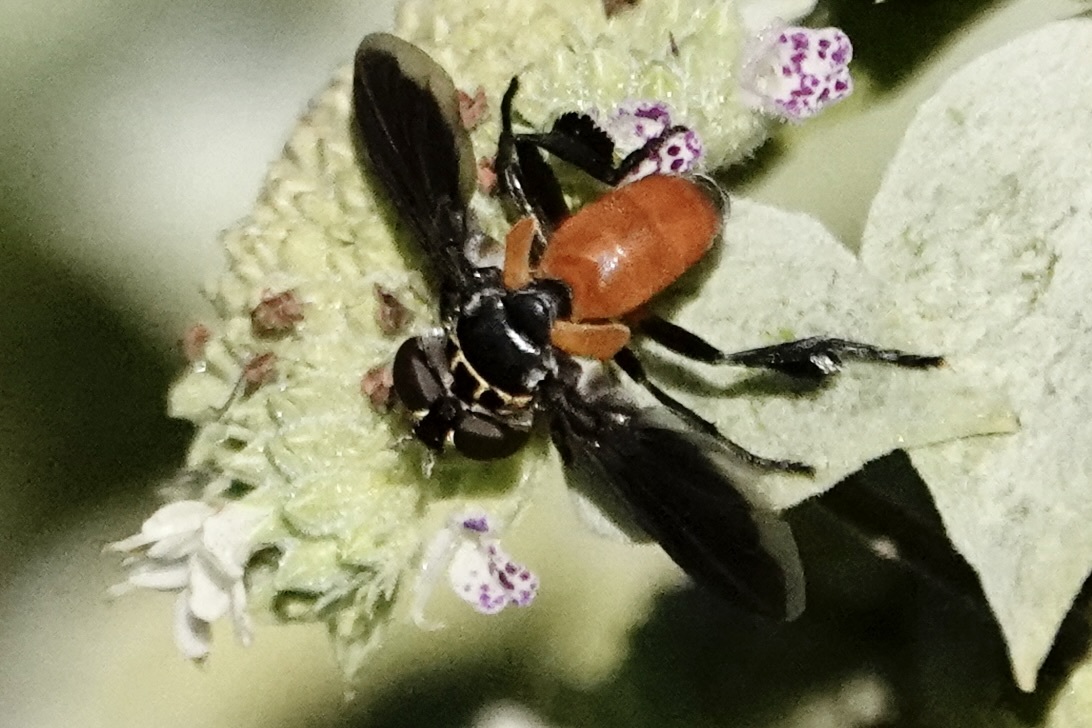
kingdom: Animalia
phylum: Arthropoda
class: Insecta
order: Diptera
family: Tachinidae
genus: Trichopoda
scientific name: Trichopoda pennipes
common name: Tachinid fly
